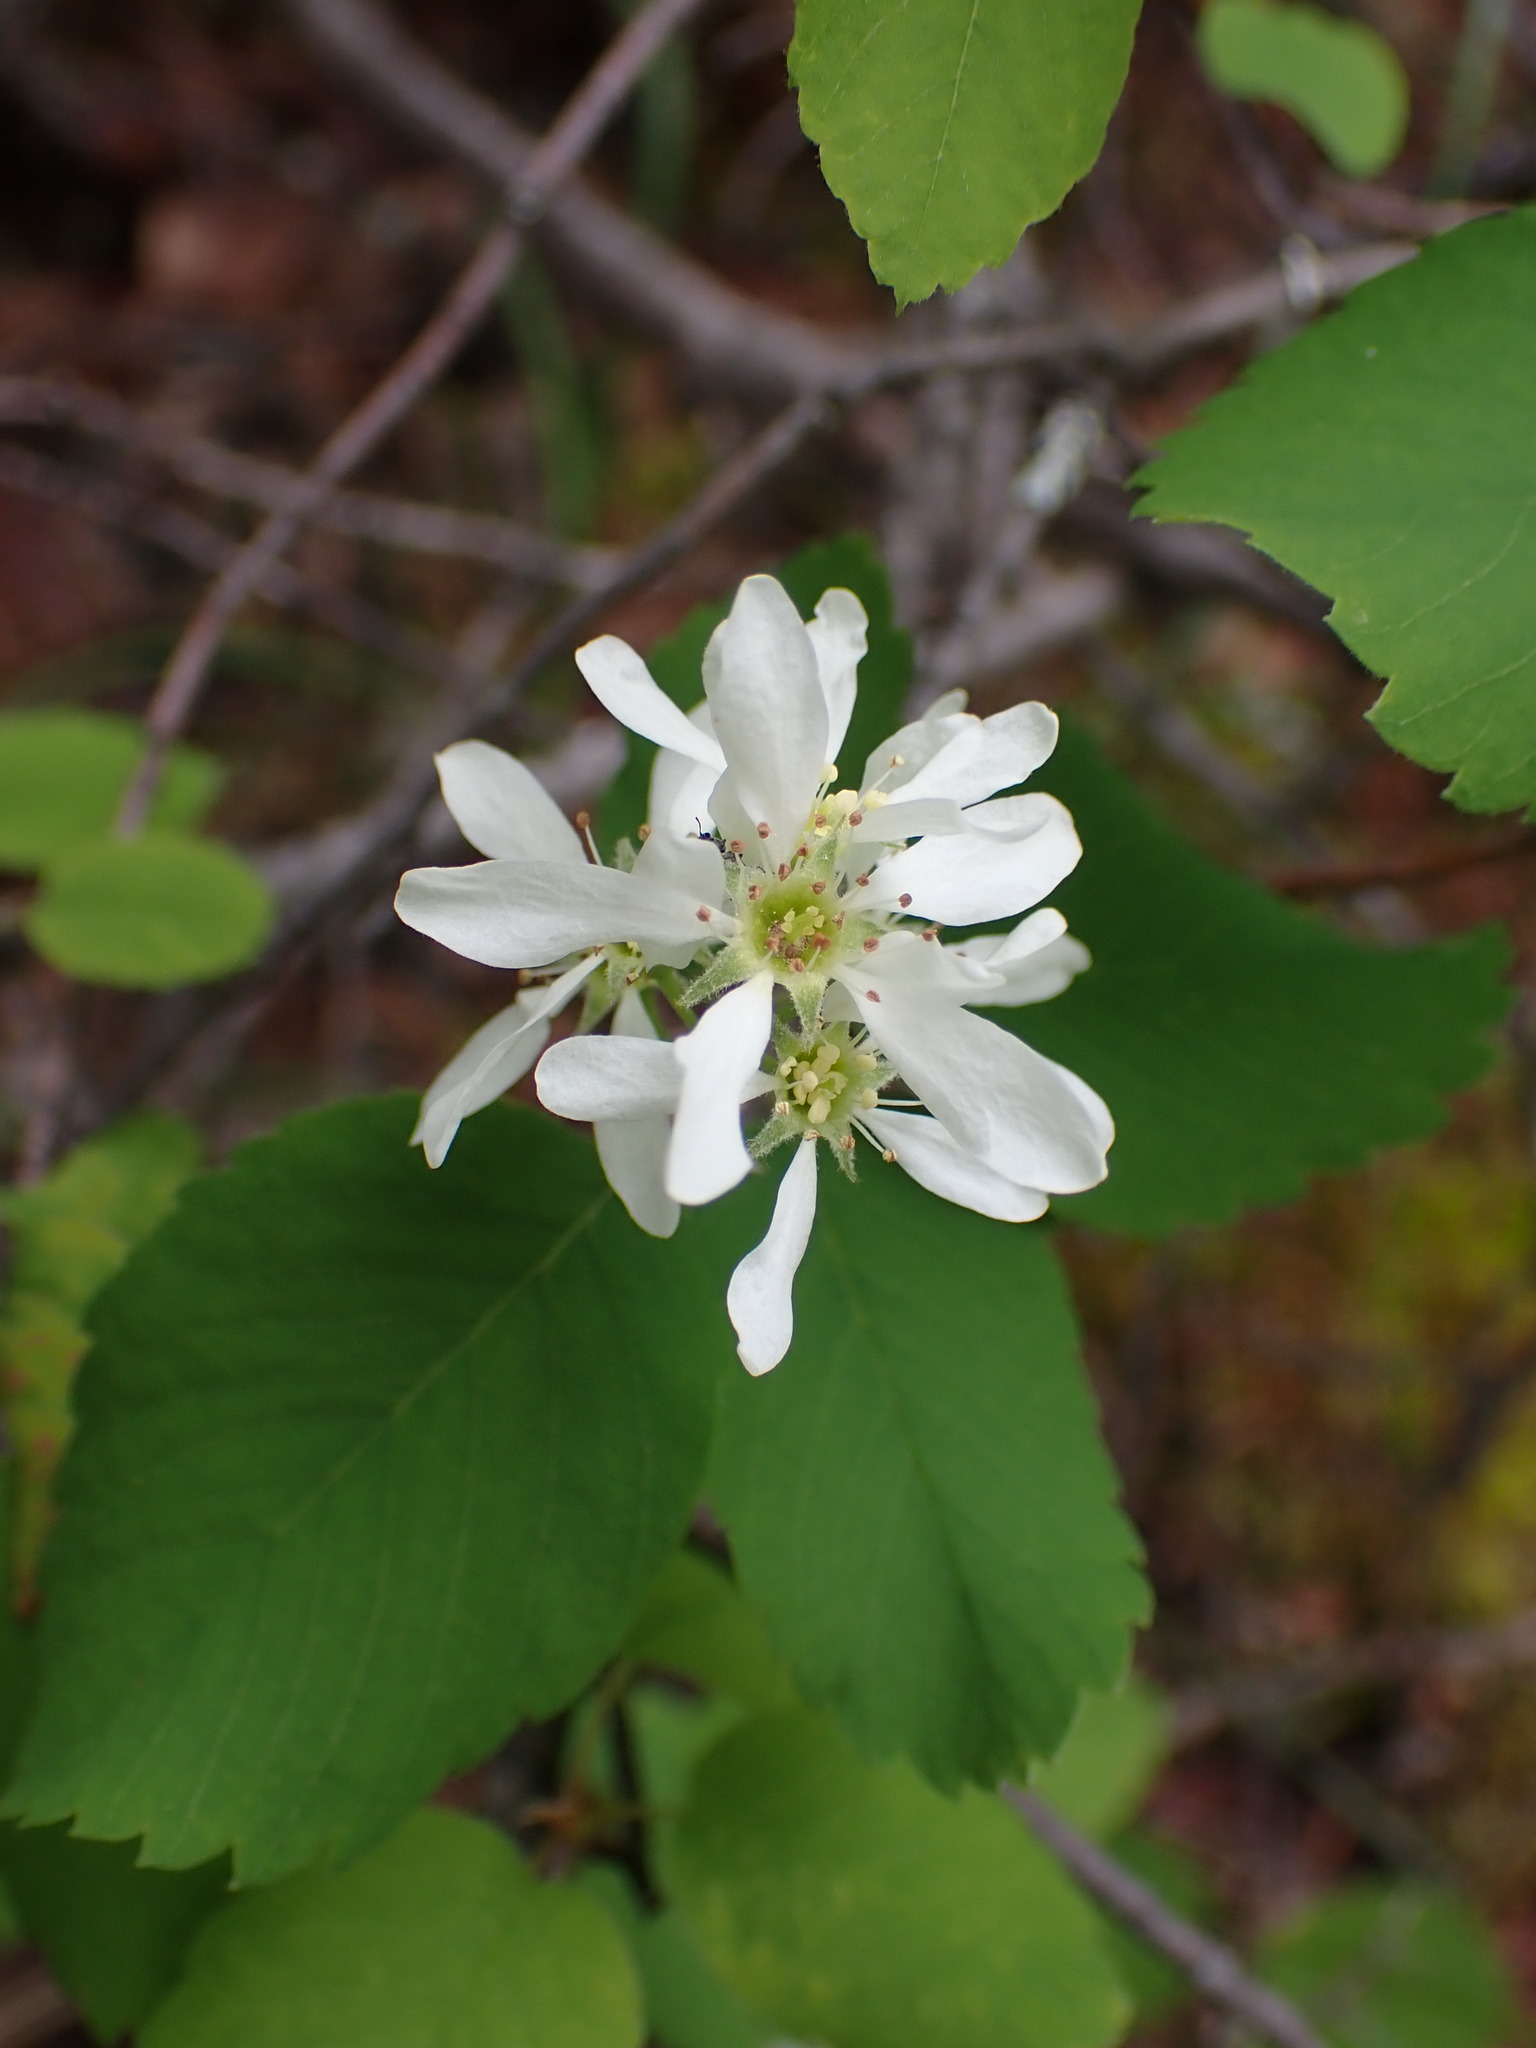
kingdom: Plantae
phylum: Tracheophyta
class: Magnoliopsida
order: Rosales
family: Rosaceae
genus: Amelanchier
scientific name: Amelanchier alnifolia
